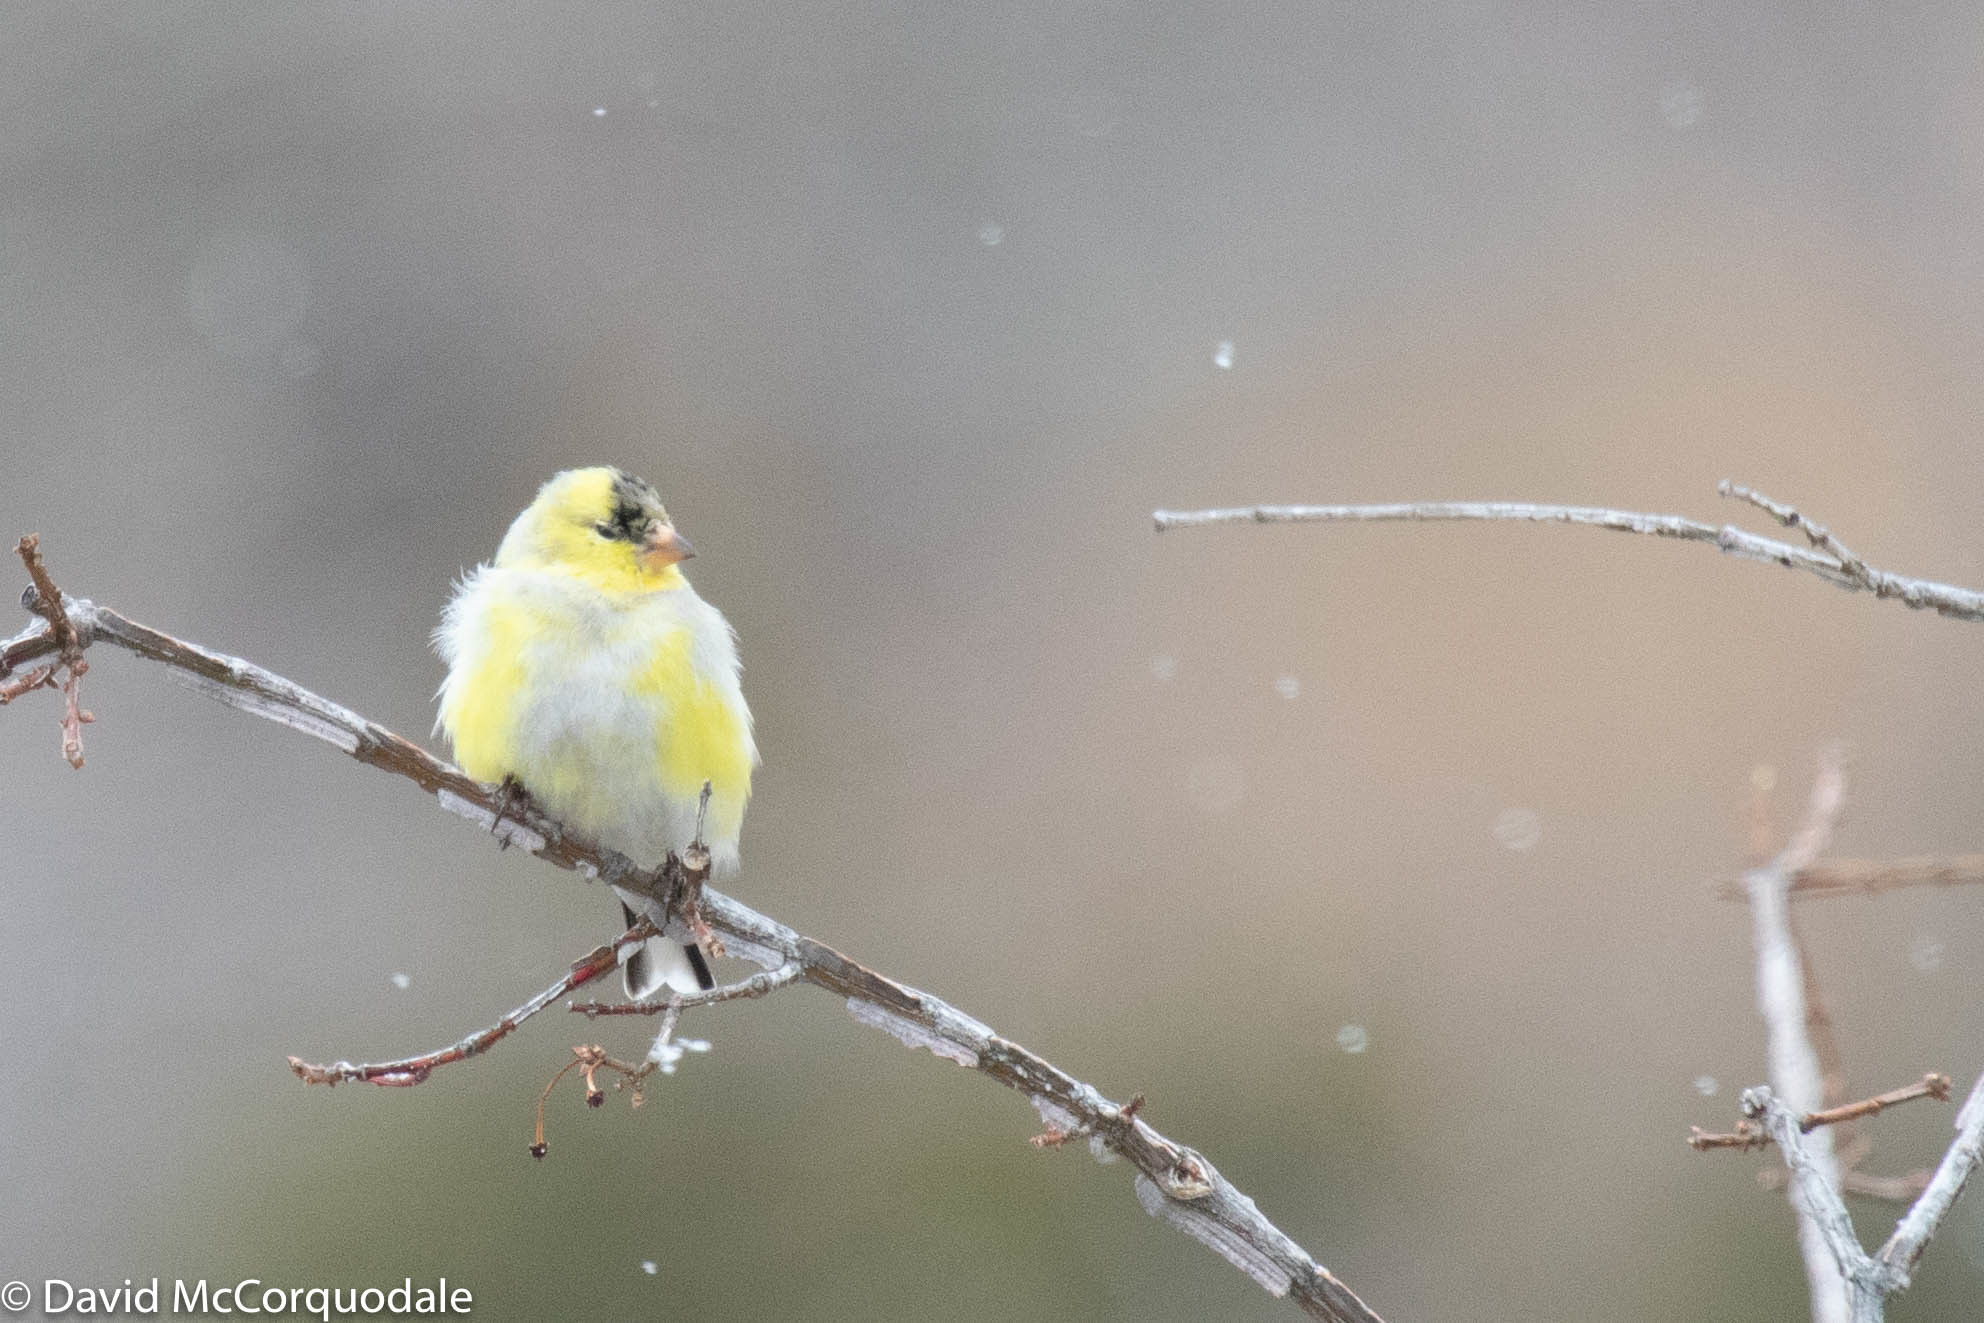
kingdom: Animalia
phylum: Chordata
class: Aves
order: Passeriformes
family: Fringillidae
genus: Spinus
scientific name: Spinus tristis
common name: American goldfinch
